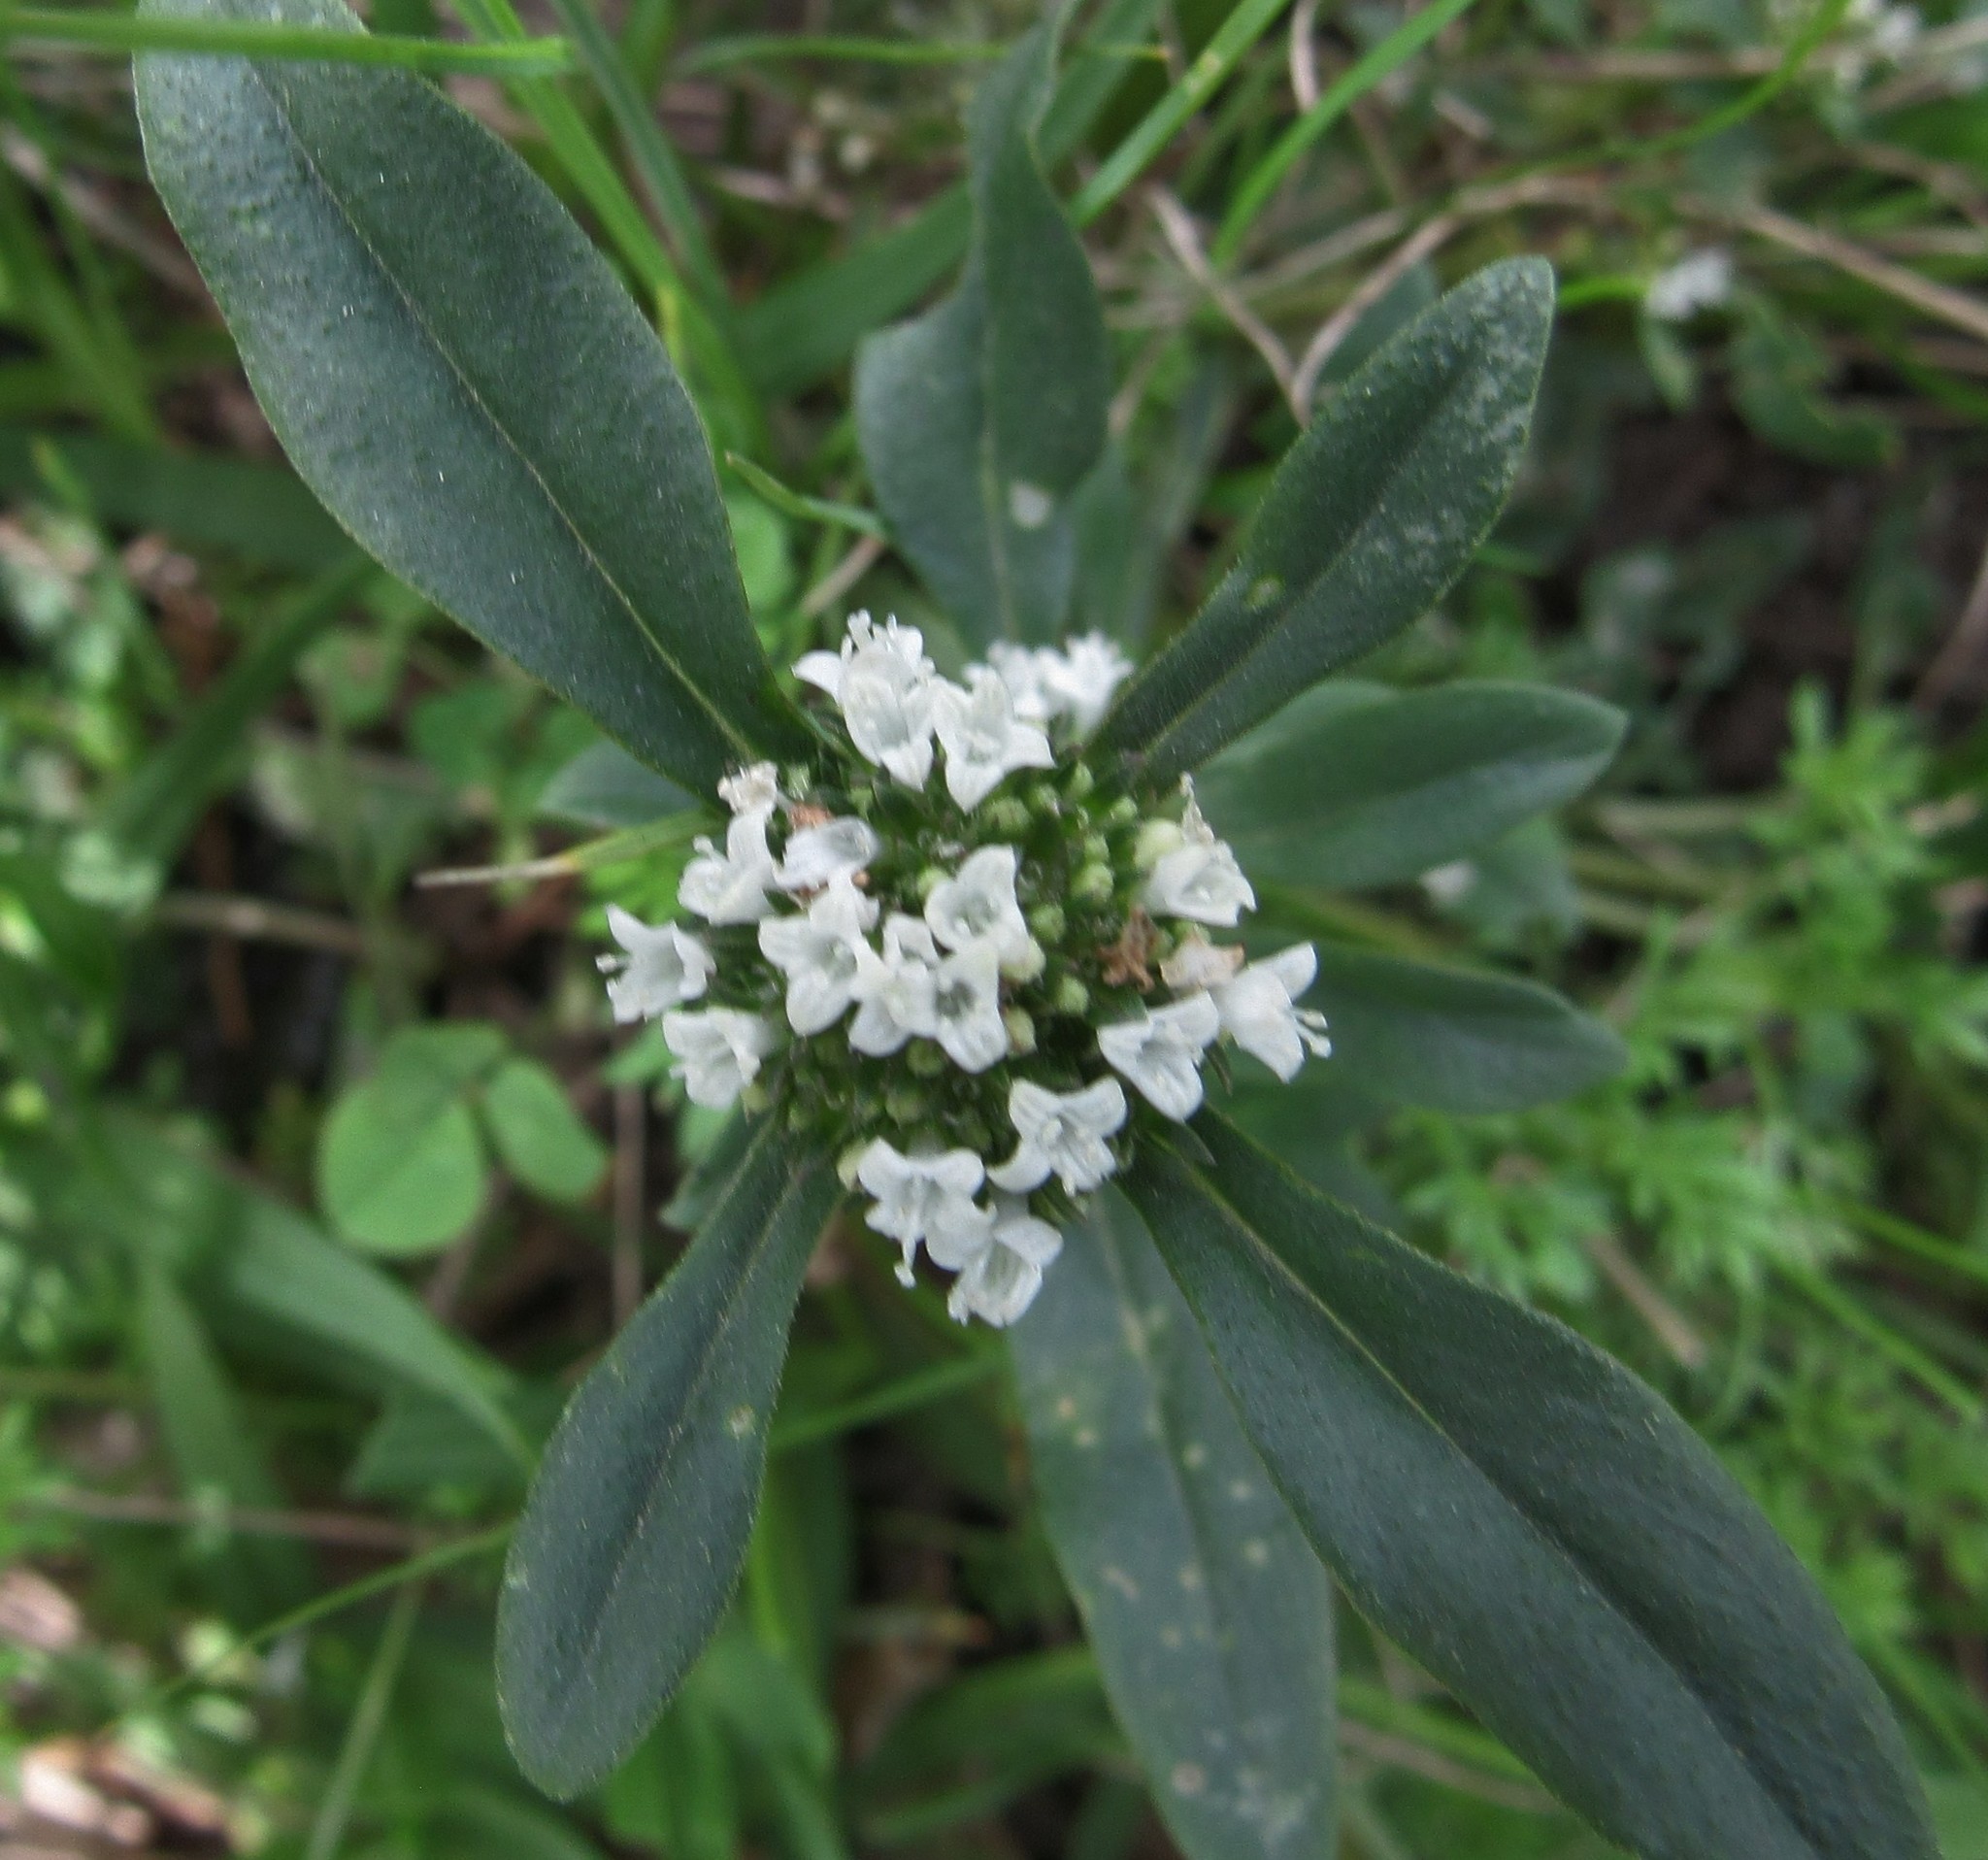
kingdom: Plantae
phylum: Tracheophyta
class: Magnoliopsida
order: Gentianales
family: Rubiaceae
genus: Spermacoce
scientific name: Spermacoce dasycephala
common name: False buttonweed
